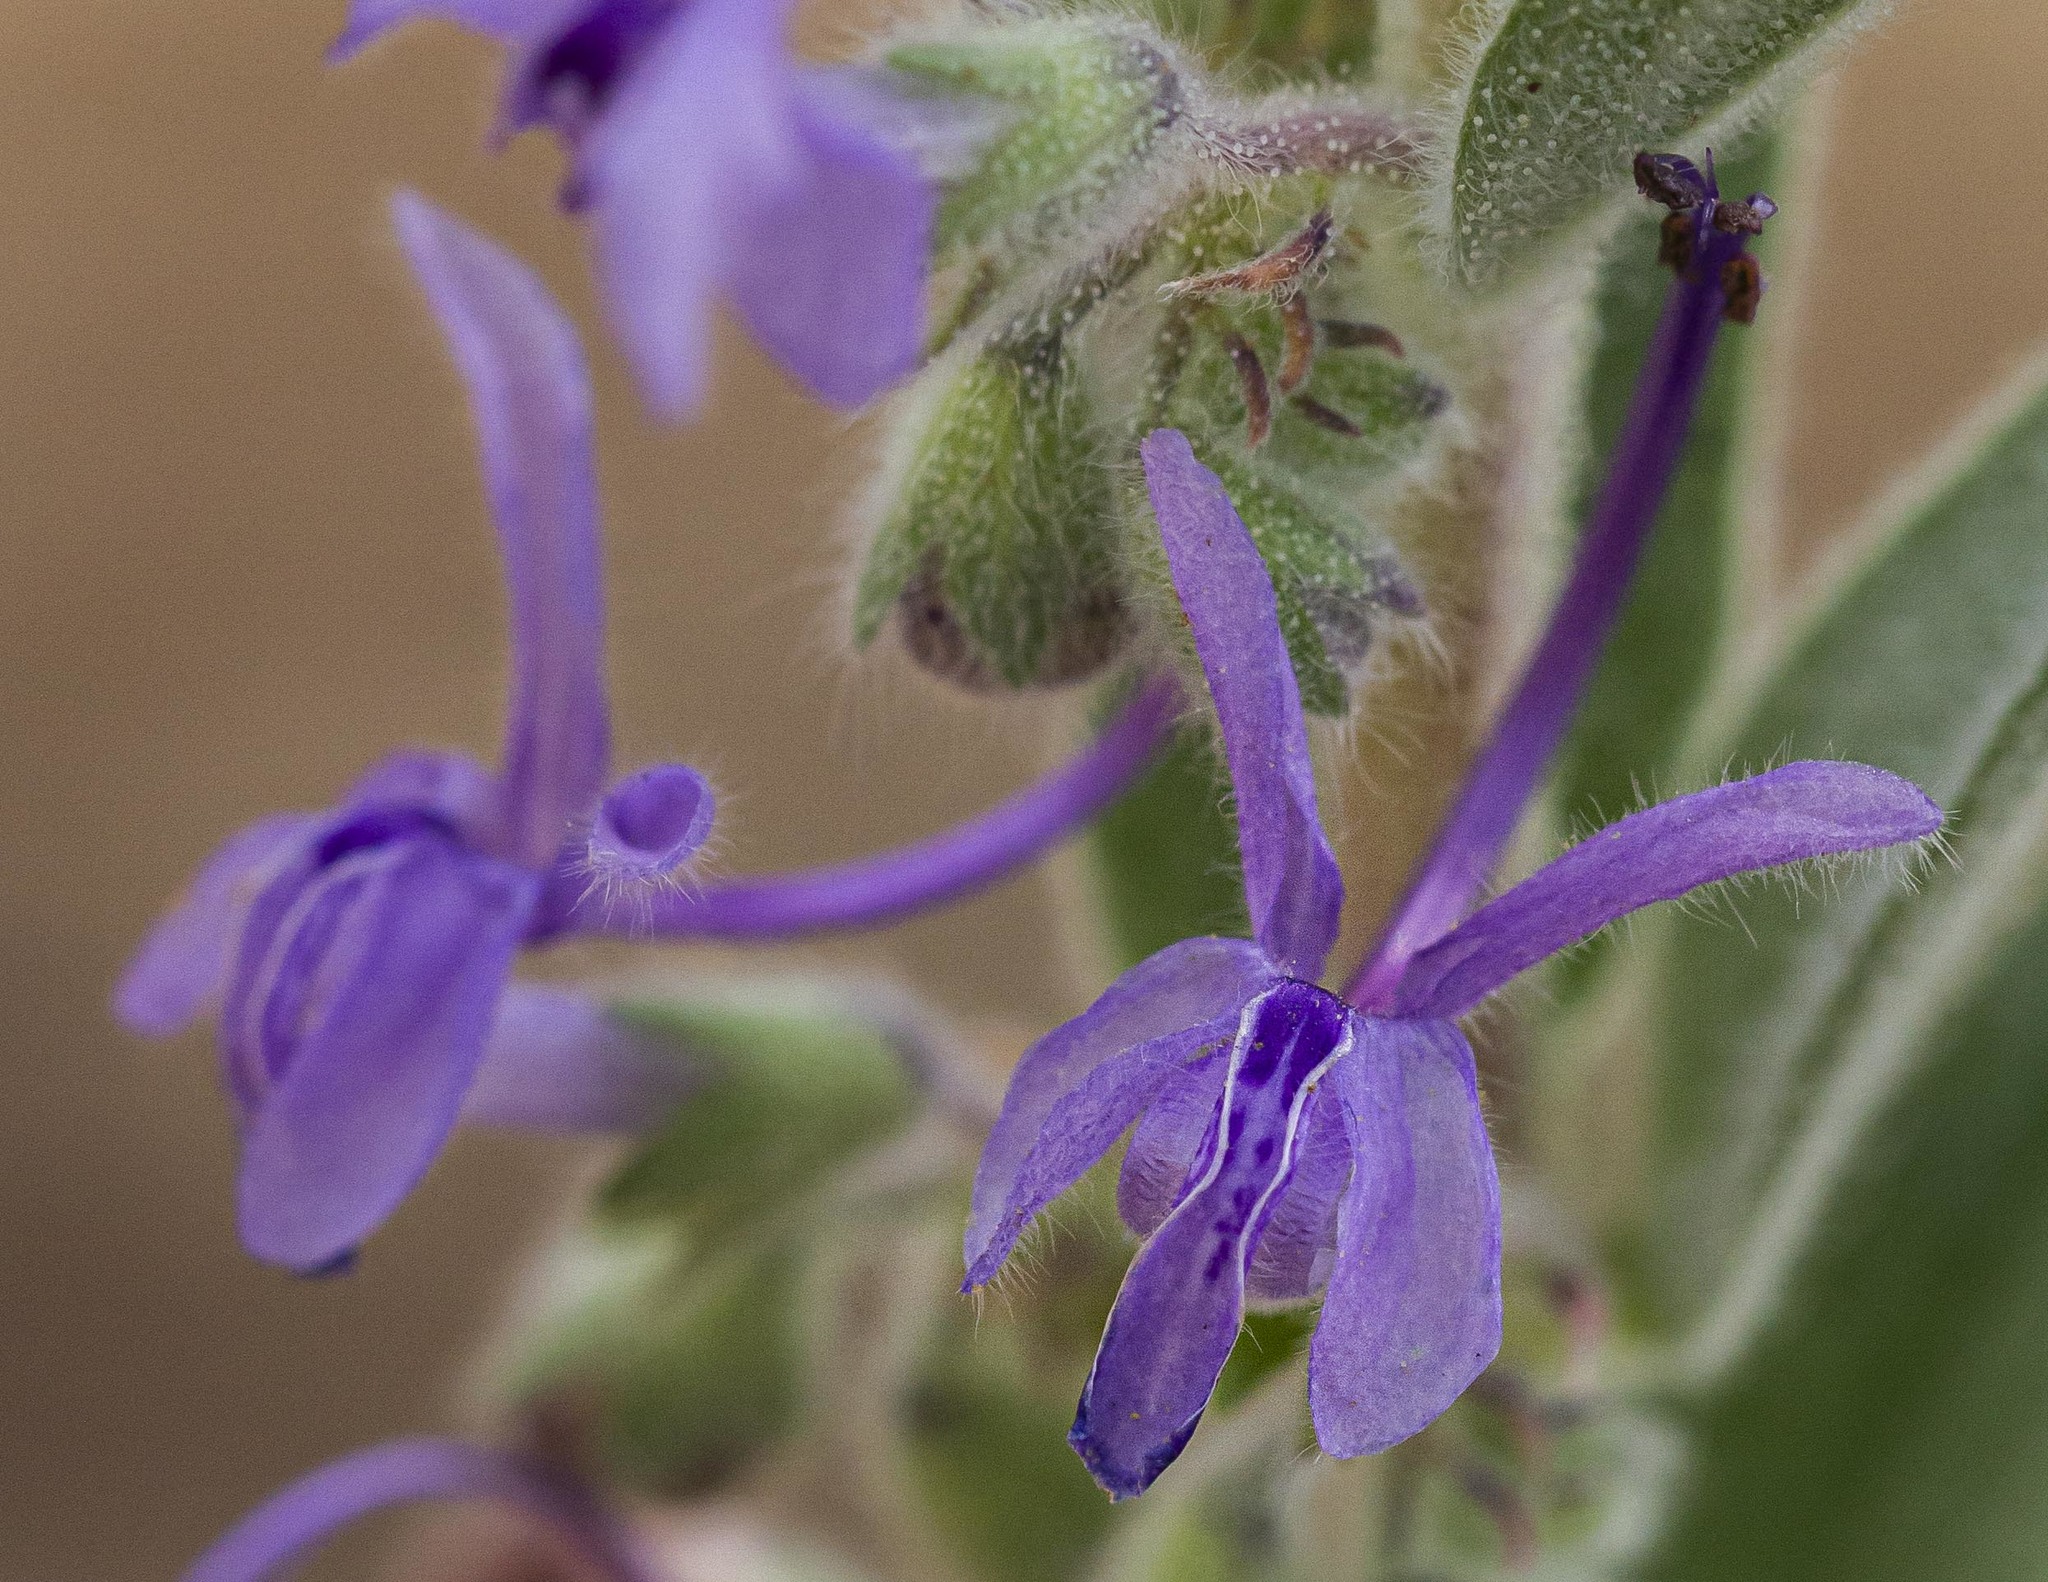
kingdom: Plantae
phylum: Tracheophyta
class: Magnoliopsida
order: Lamiales
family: Lamiaceae
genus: Trichostema
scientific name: Trichostema lanceolatum
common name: Vinegar-weed
